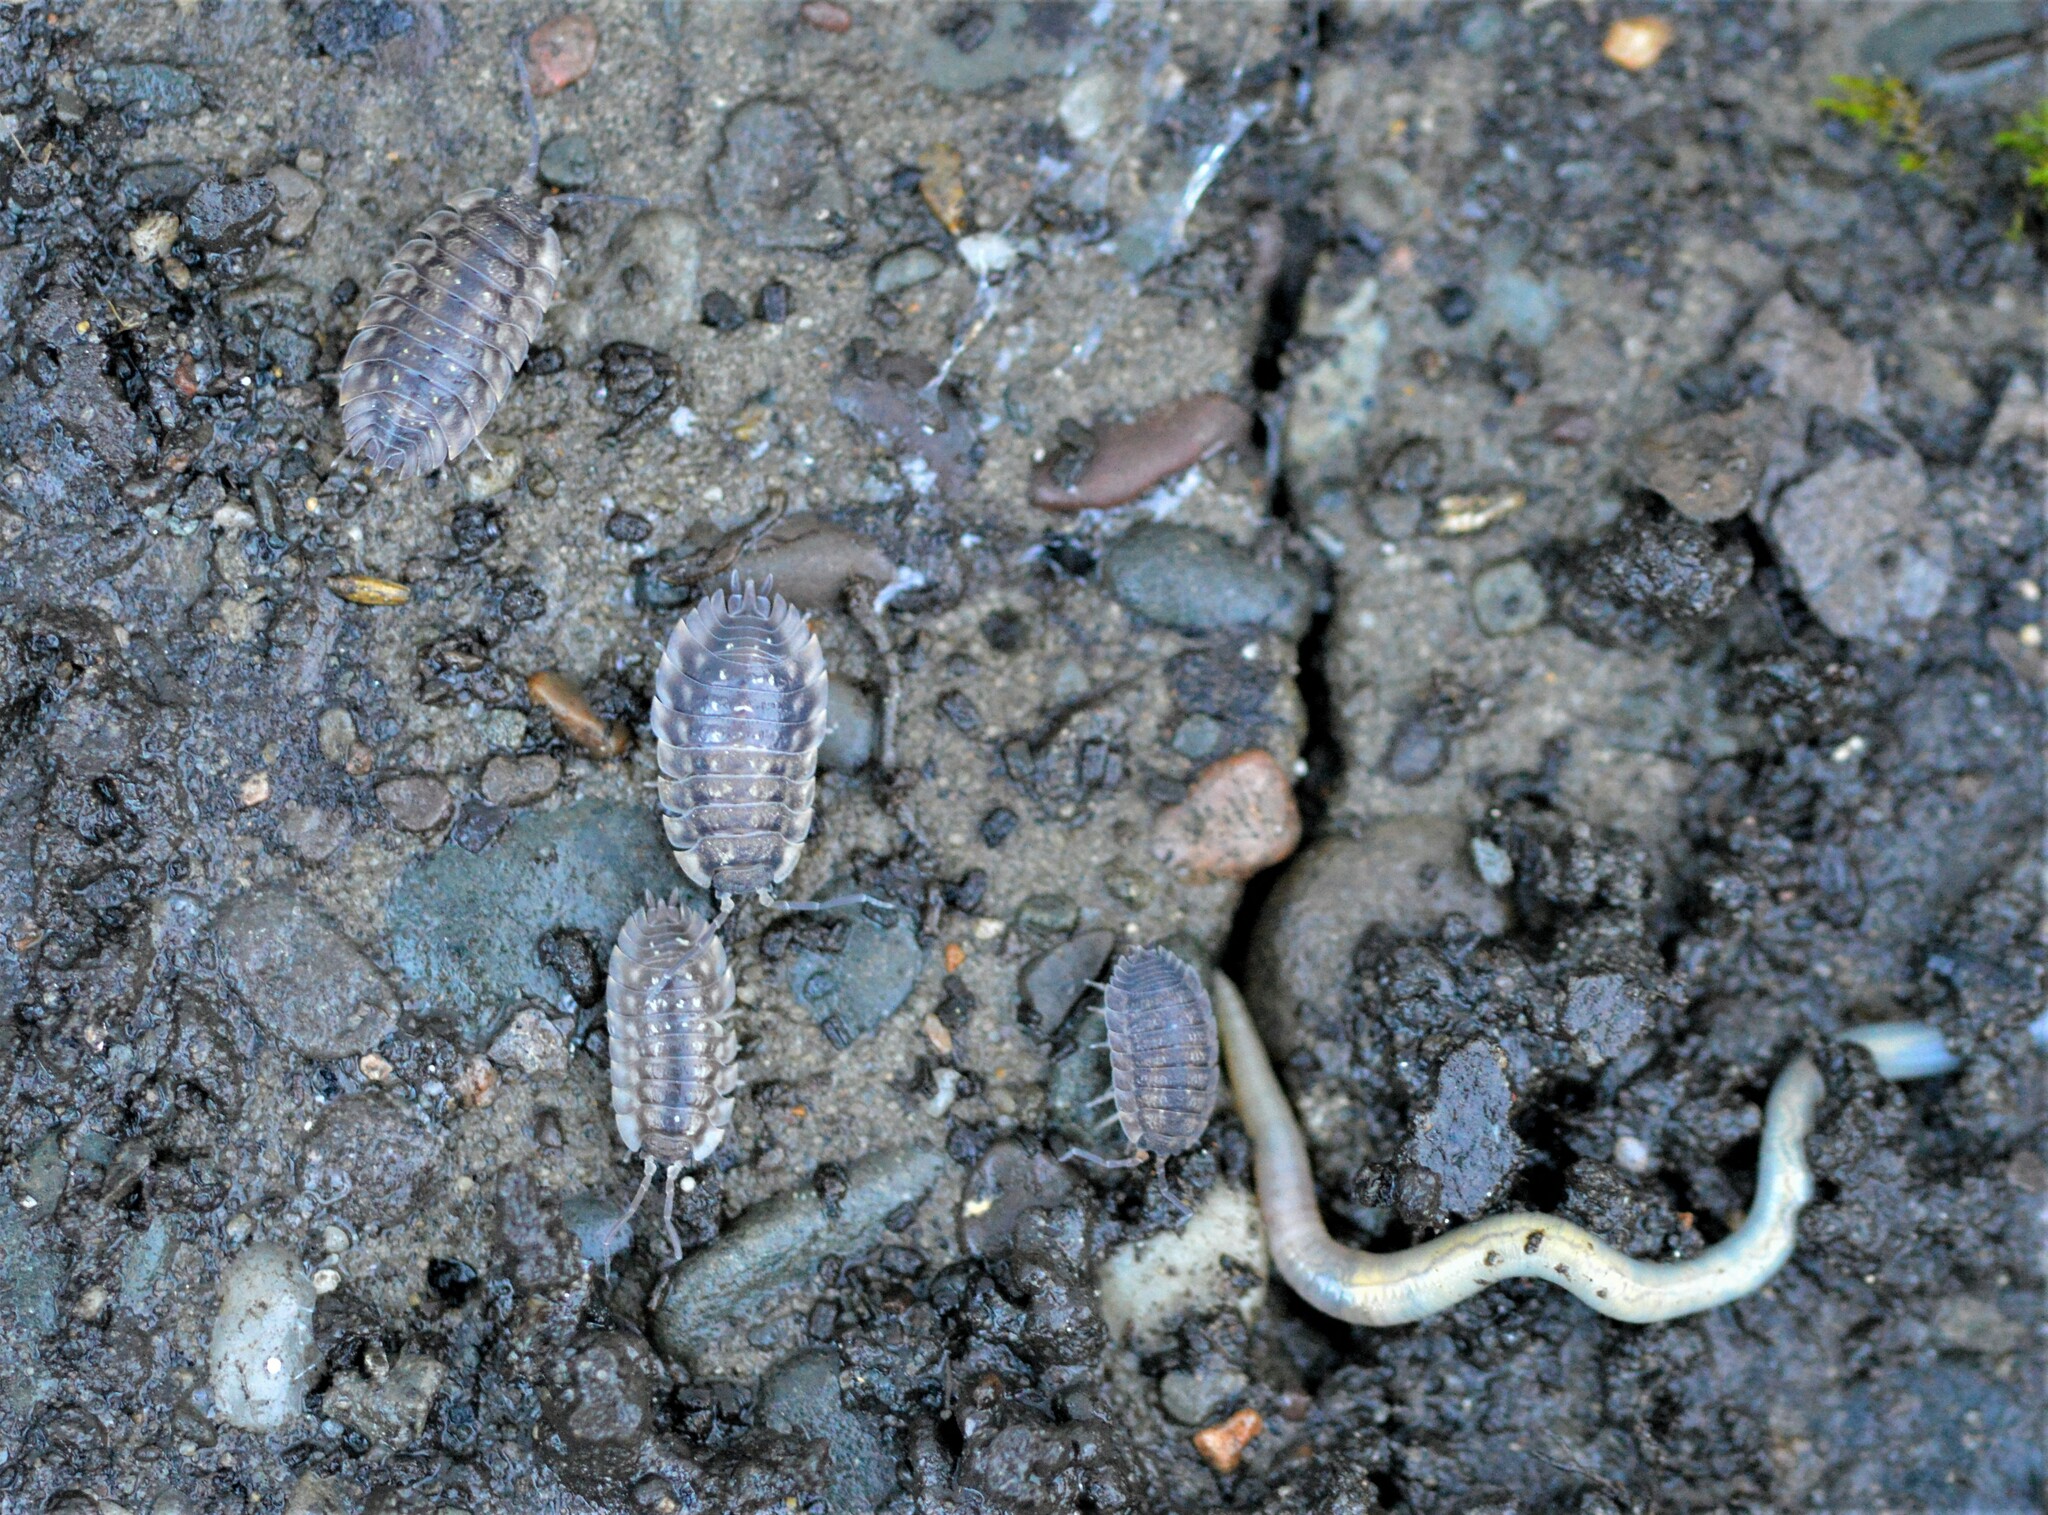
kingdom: Animalia
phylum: Arthropoda
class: Malacostraca
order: Isopoda
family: Oniscidae
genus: Oniscus
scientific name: Oniscus asellus
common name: Common shiny woodlouse
